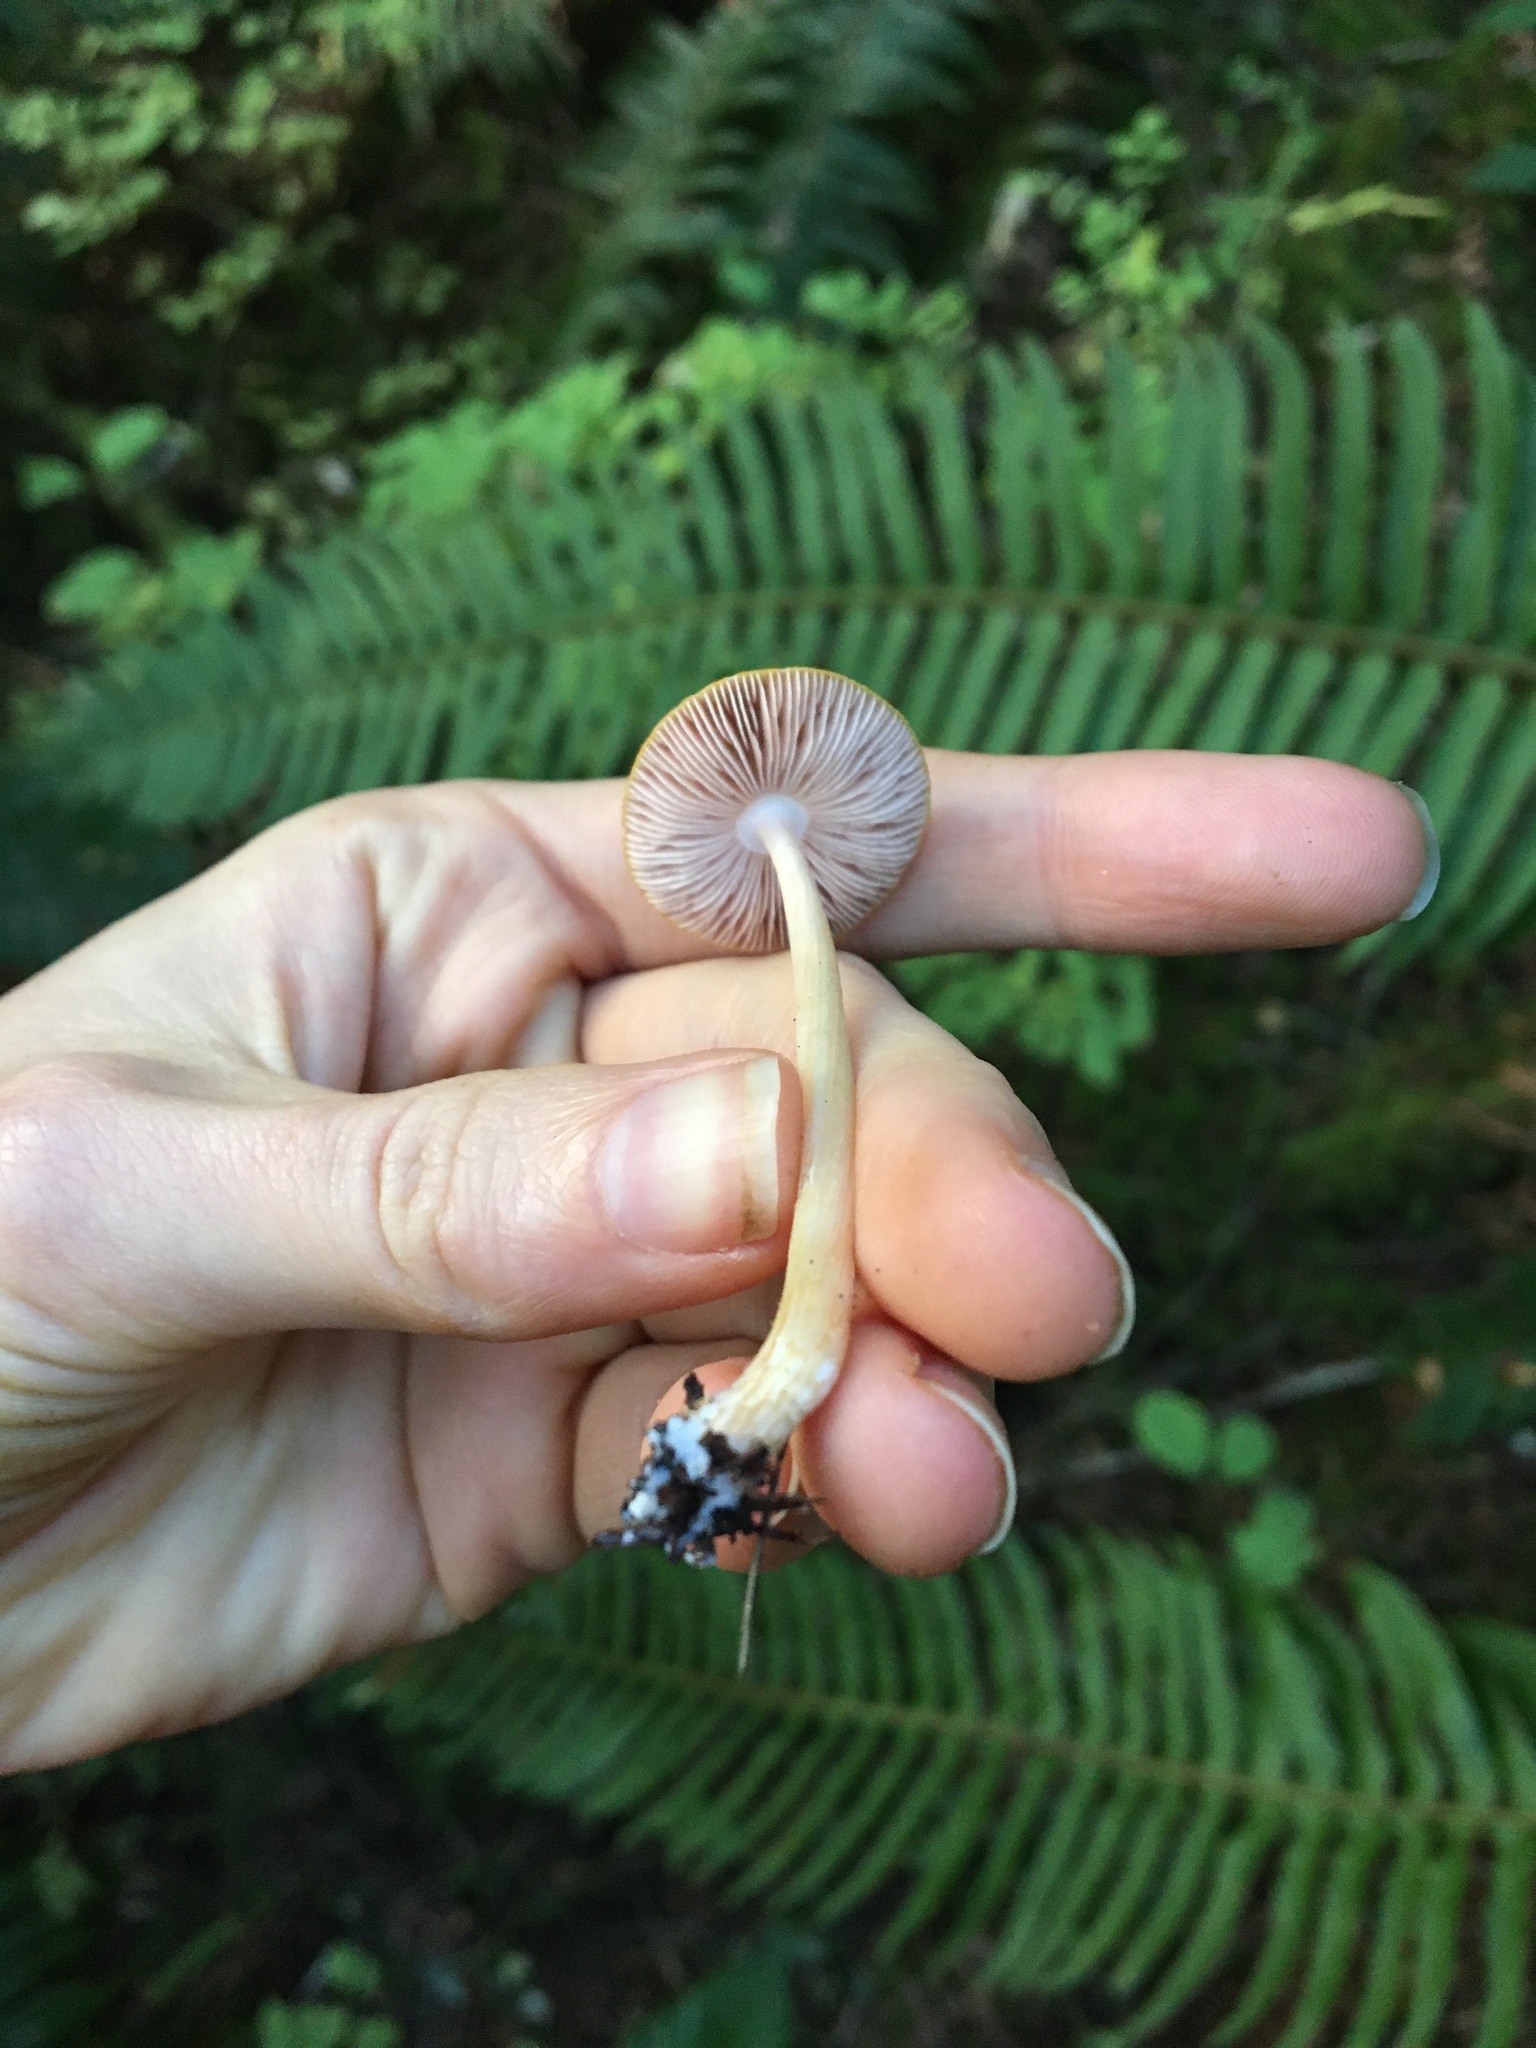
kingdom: Fungi
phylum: Basidiomycota
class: Agaricomycetes
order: Agaricales
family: Pluteaceae
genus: Pluteus
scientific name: Pluteus leoninus
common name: Lion shield
